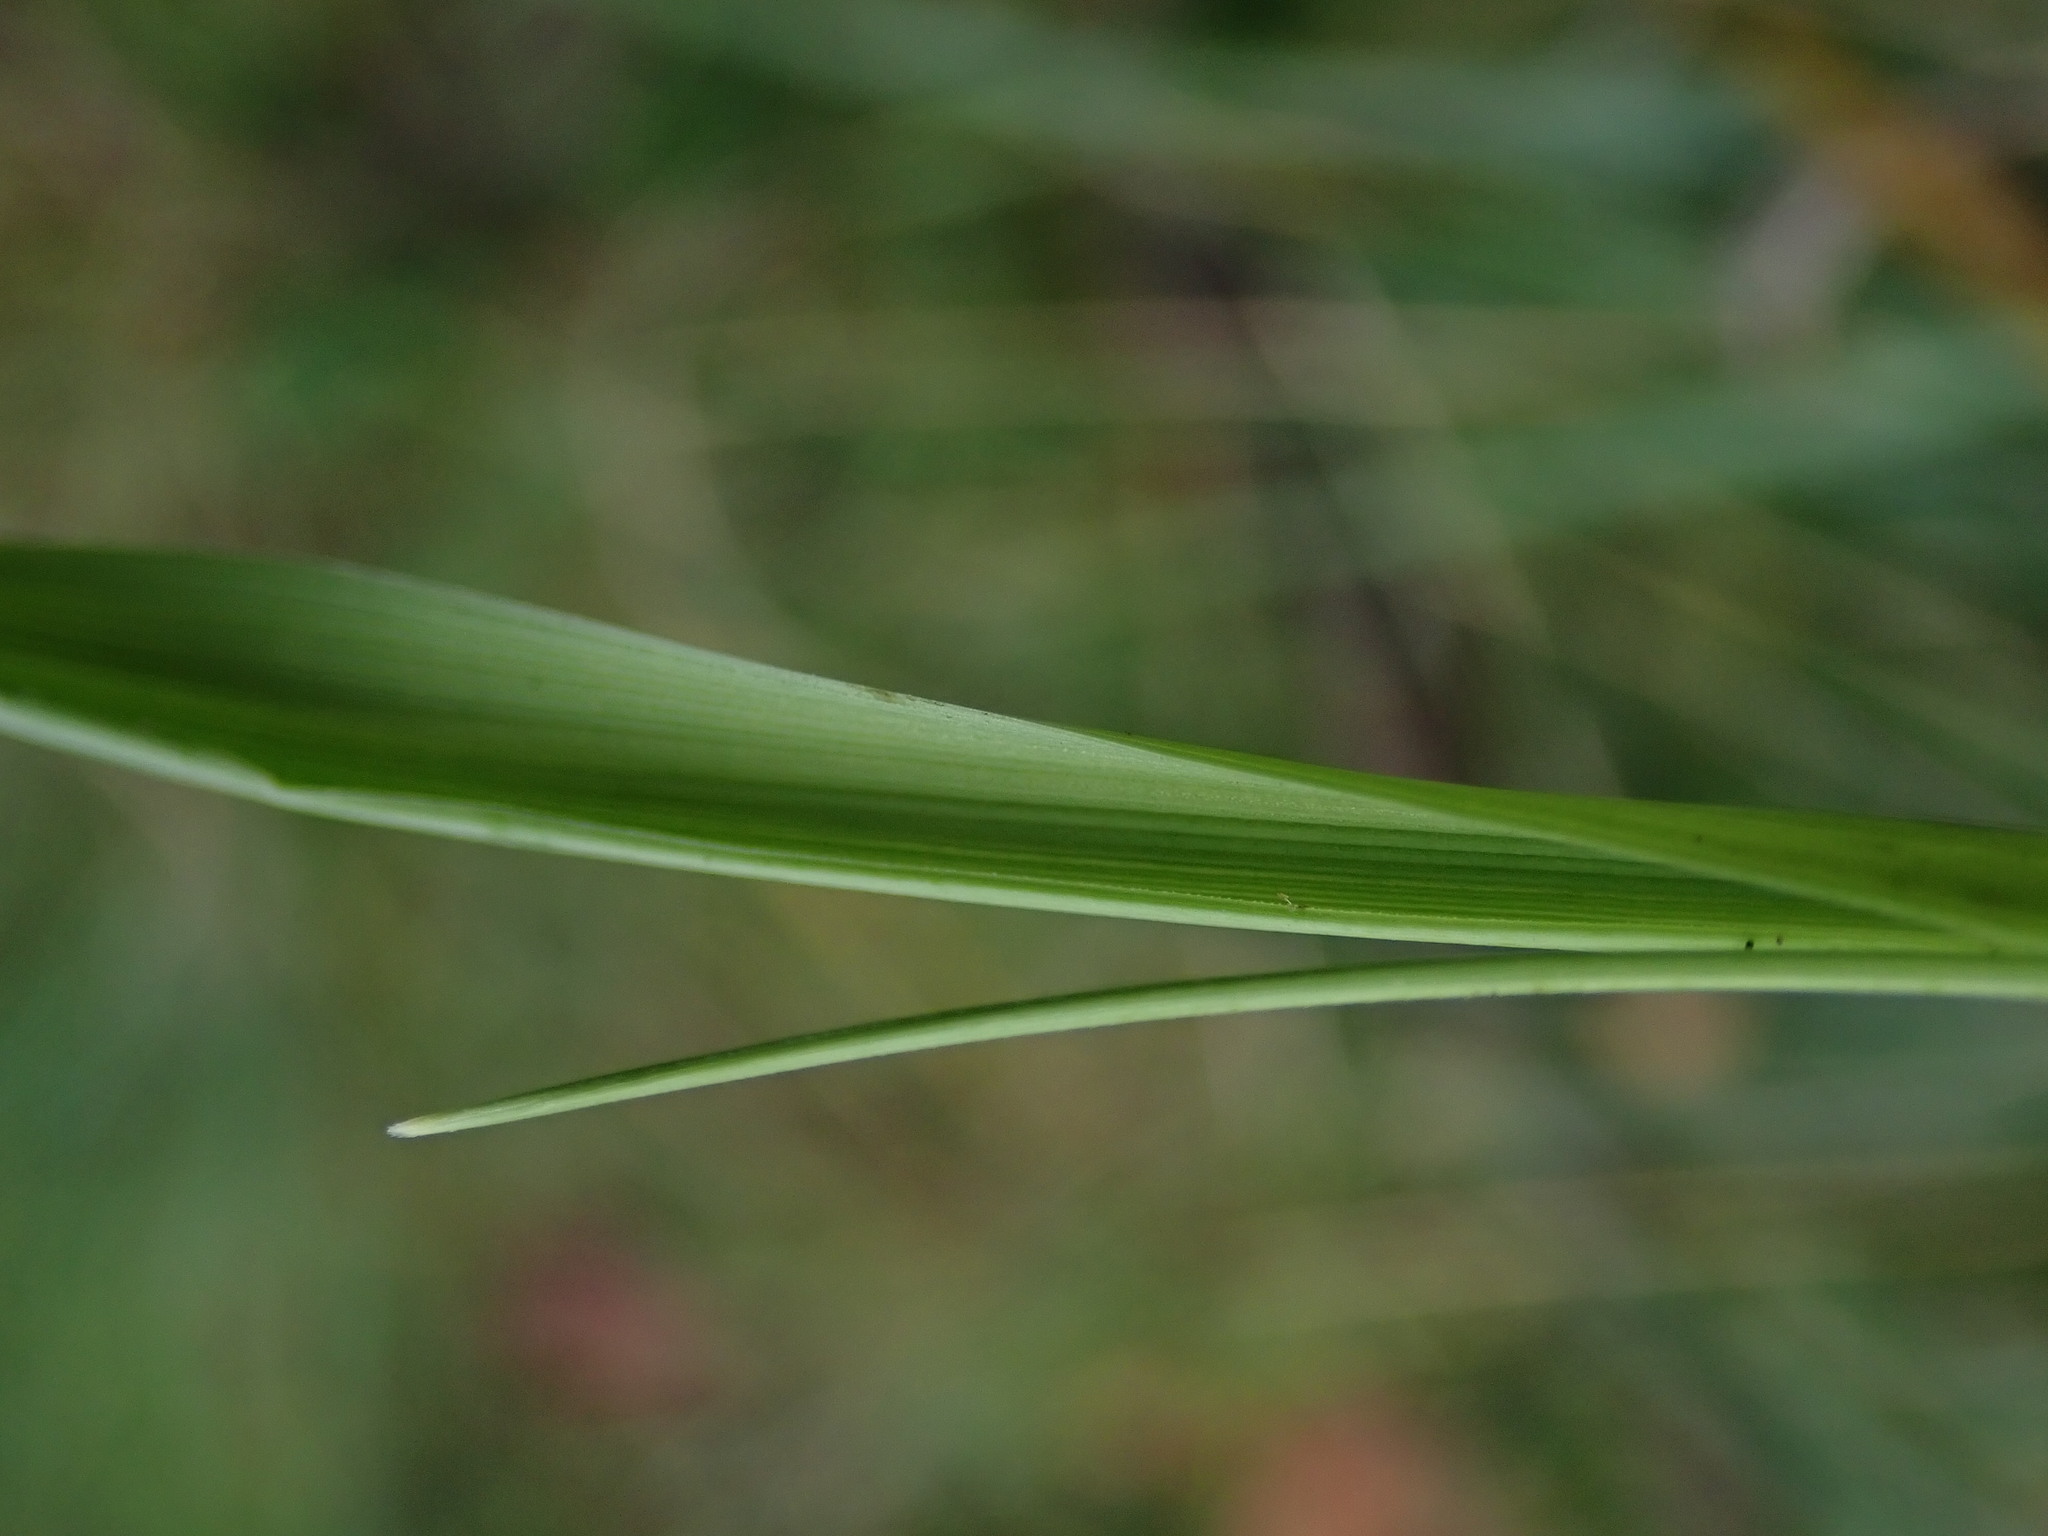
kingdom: Plantae
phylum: Tracheophyta
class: Liliopsida
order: Poales
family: Poaceae
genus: Lolium
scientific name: Lolium arundinaceum
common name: Reed fescue
